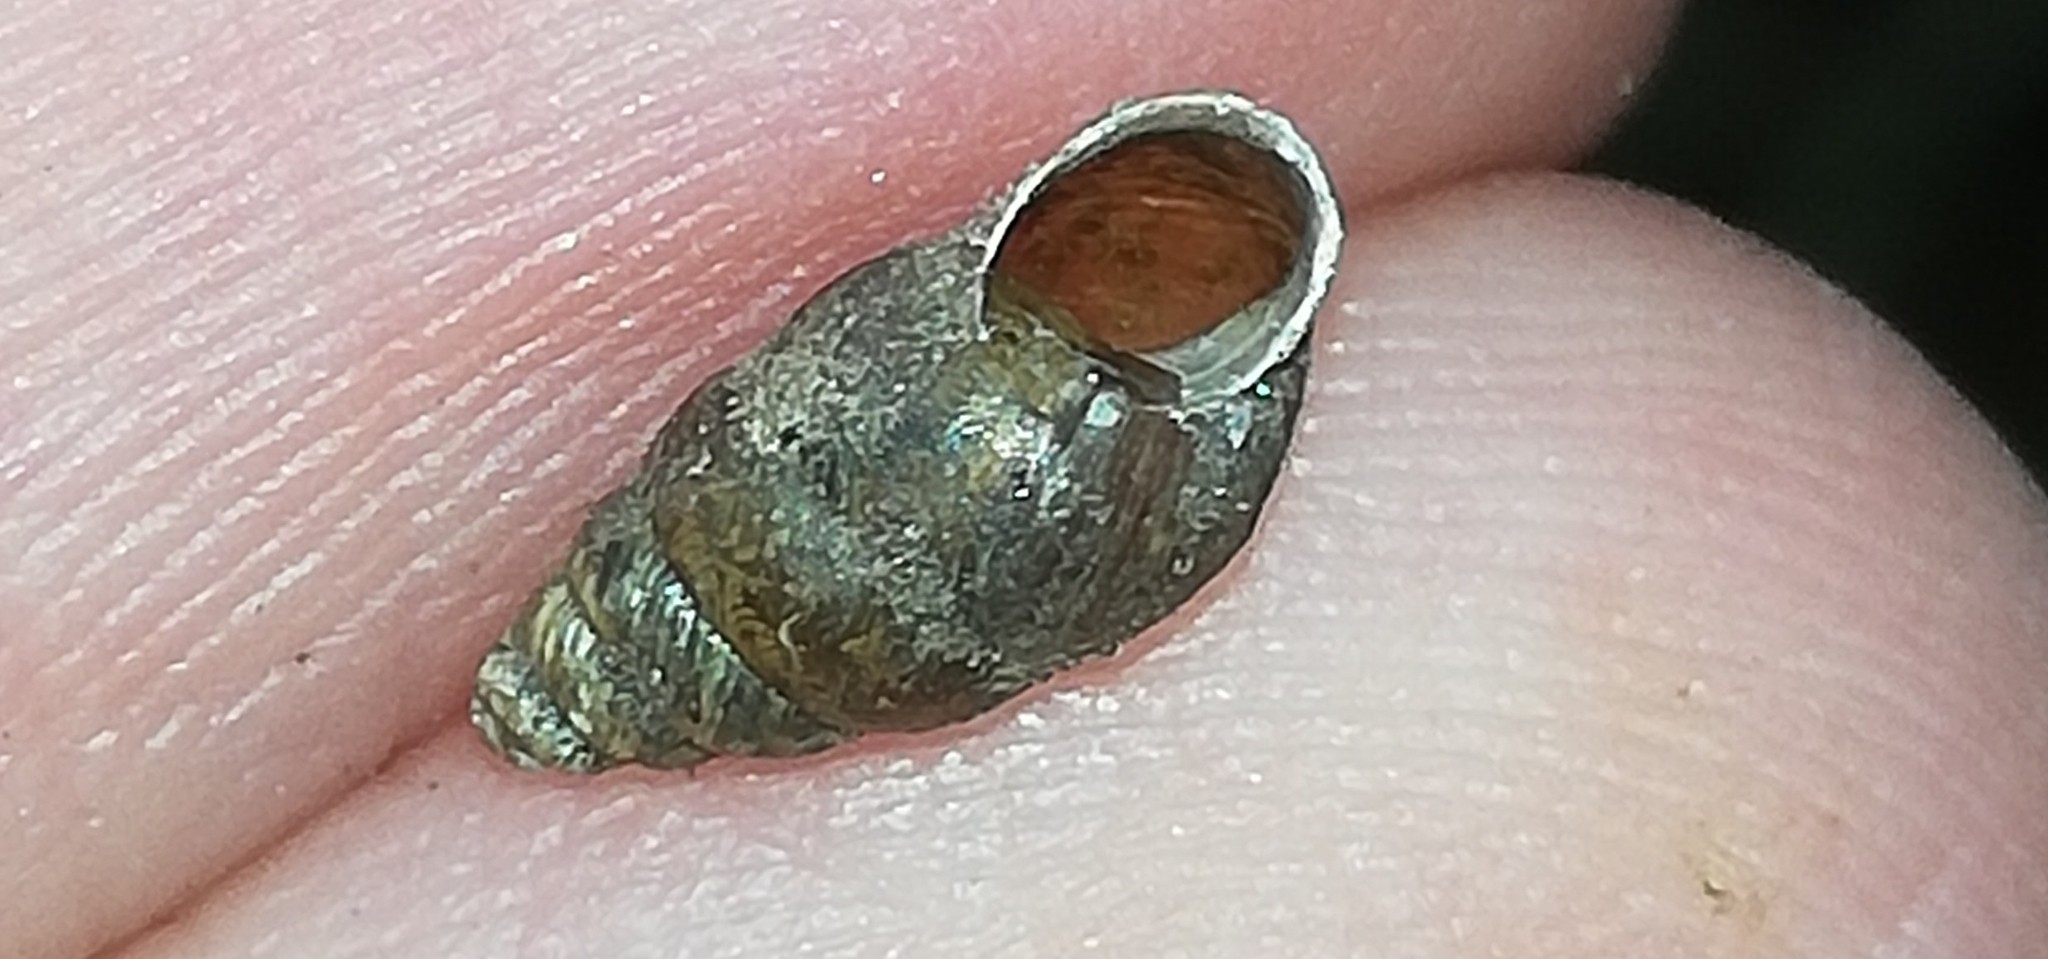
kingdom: Animalia
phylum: Mollusca
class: Gastropoda
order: Stylommatophora
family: Enidae
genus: Merdigera
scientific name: Merdigera obscura
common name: Lesser bulin
